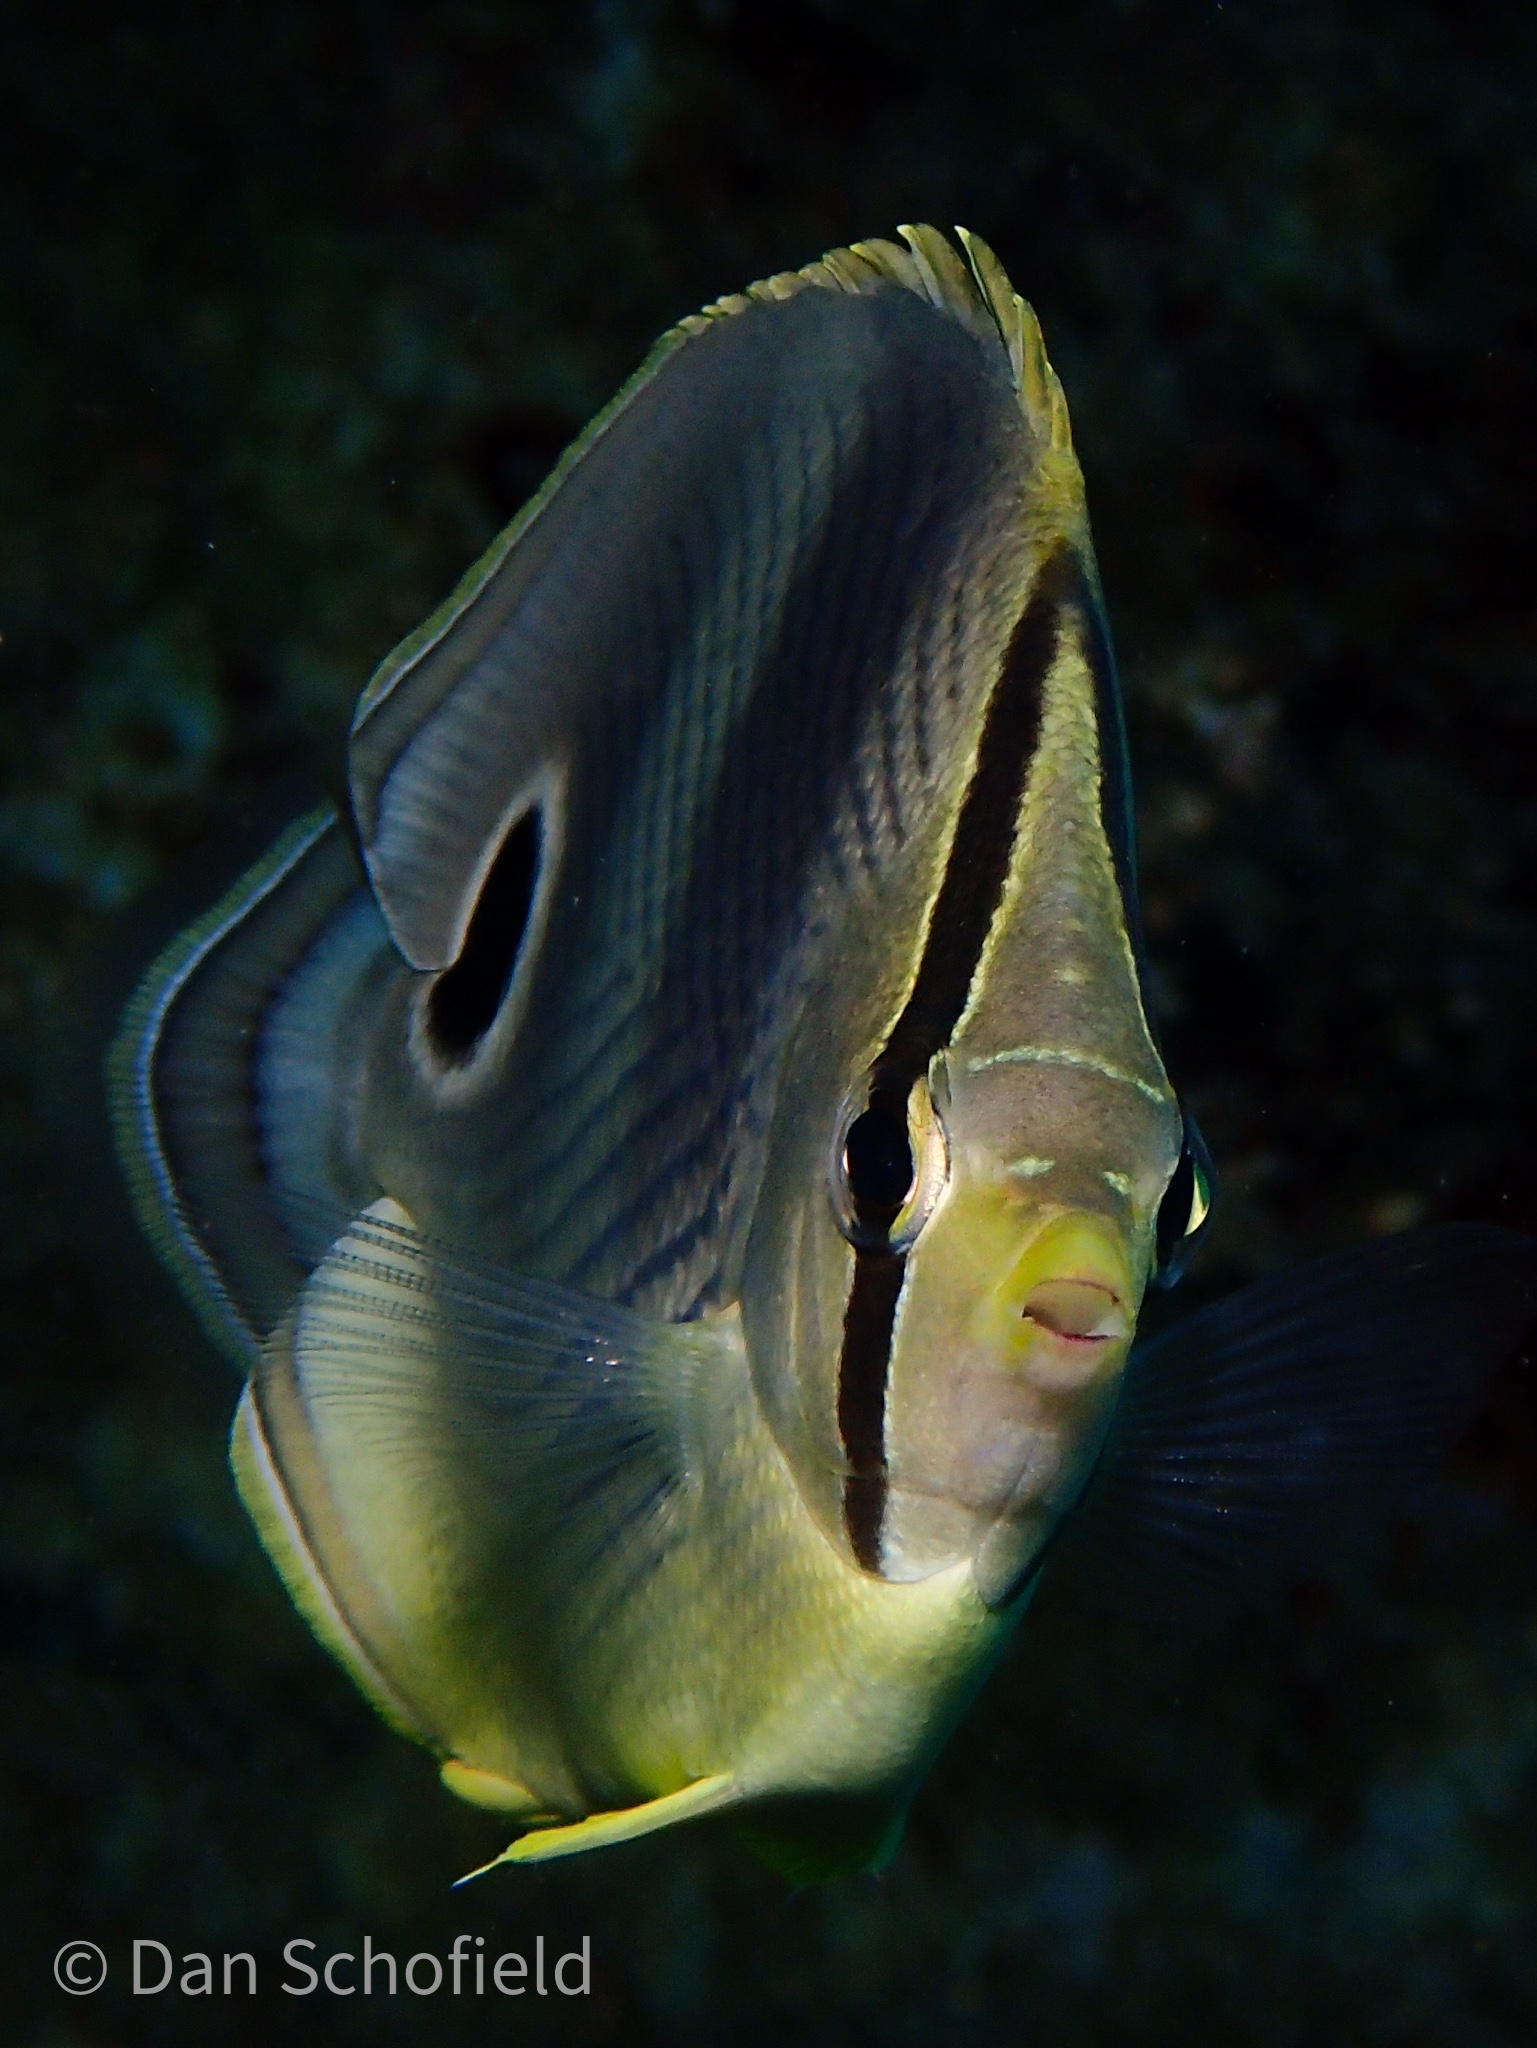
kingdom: Animalia
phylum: Chordata
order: Perciformes
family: Chaetodontidae
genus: Chaetodon
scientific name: Chaetodon capistratus
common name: Kete
